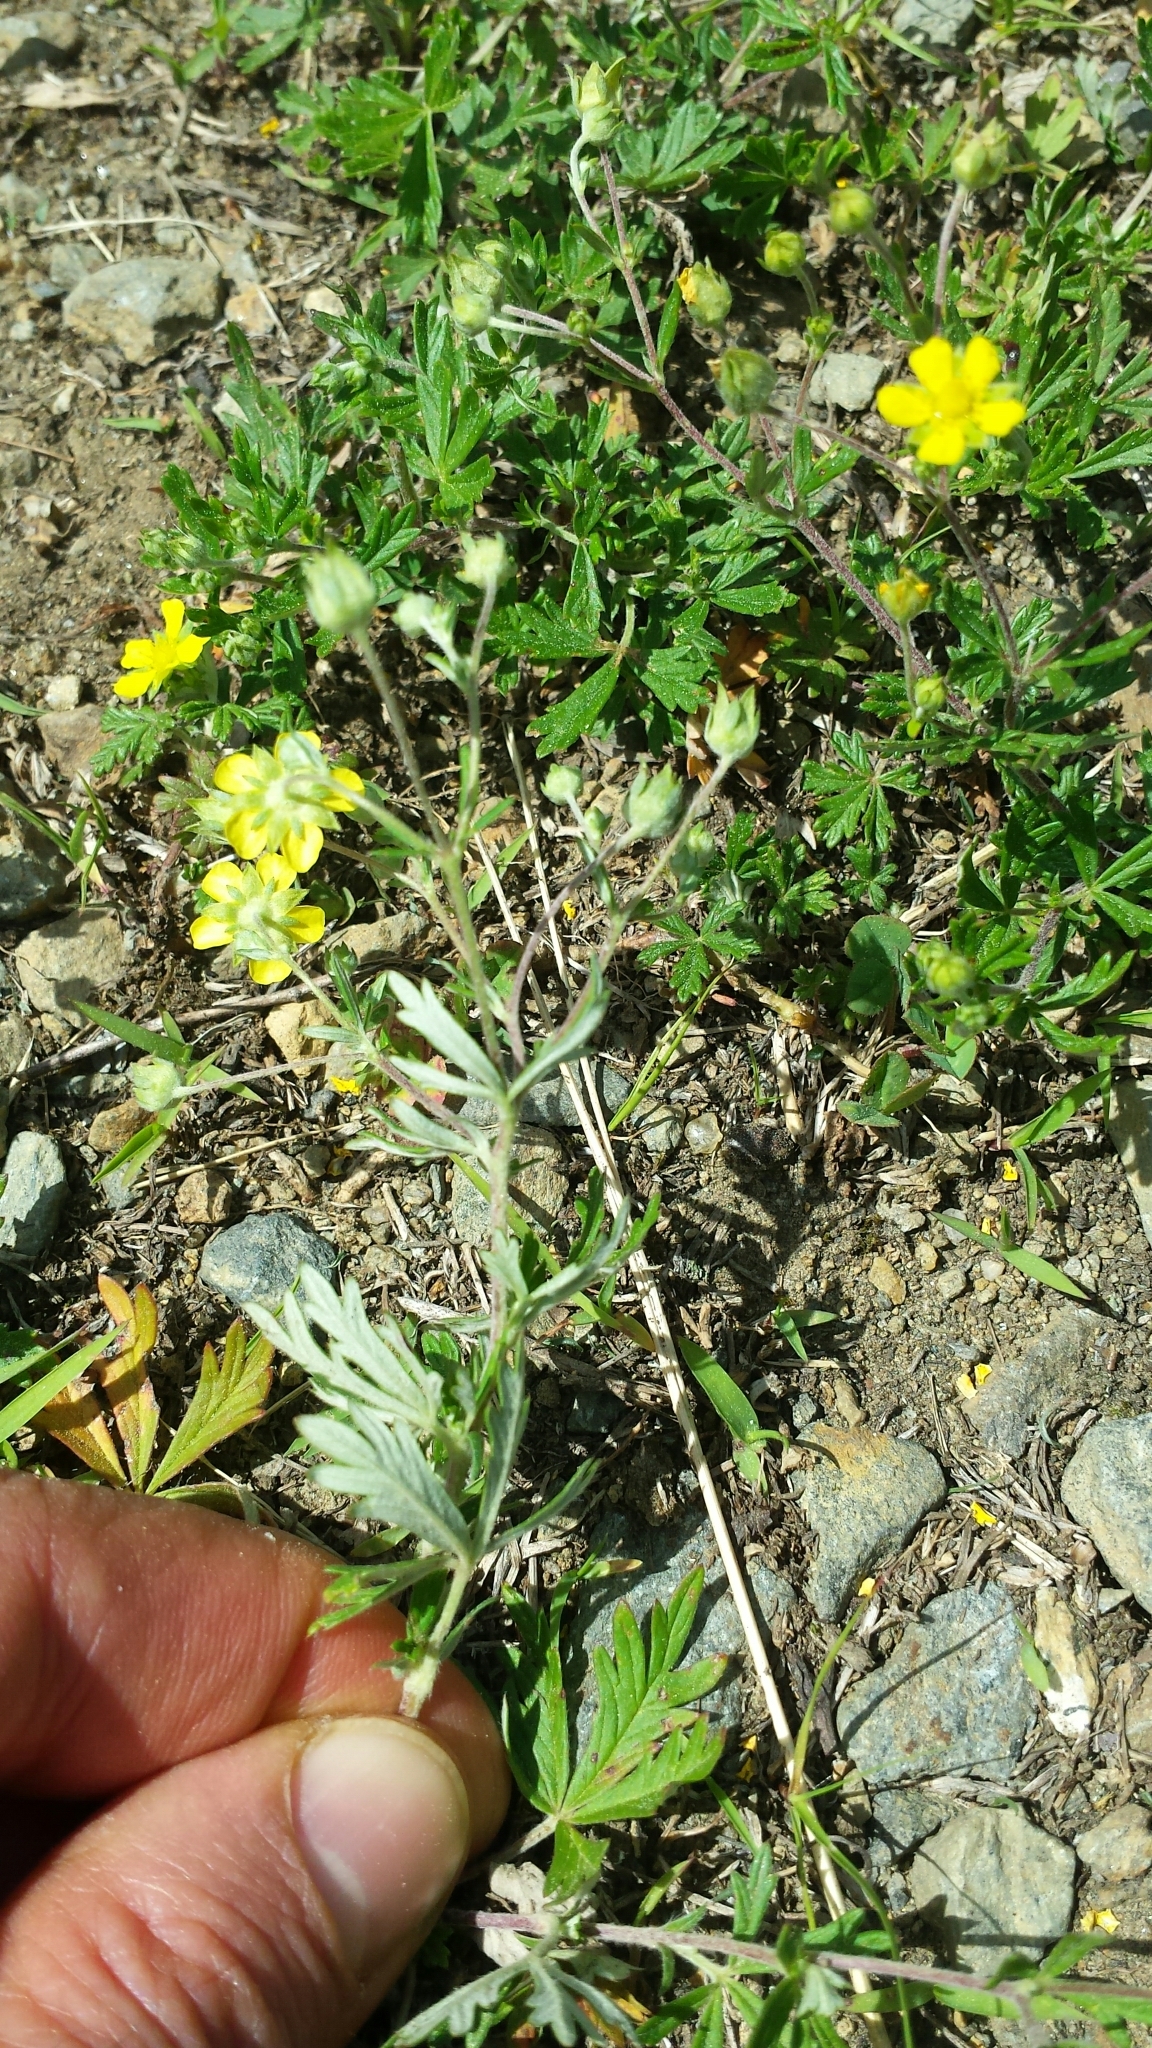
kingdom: Plantae
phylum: Tracheophyta
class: Magnoliopsida
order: Rosales
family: Rosaceae
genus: Potentilla
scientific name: Potentilla argentea
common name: Hoary cinquefoil
